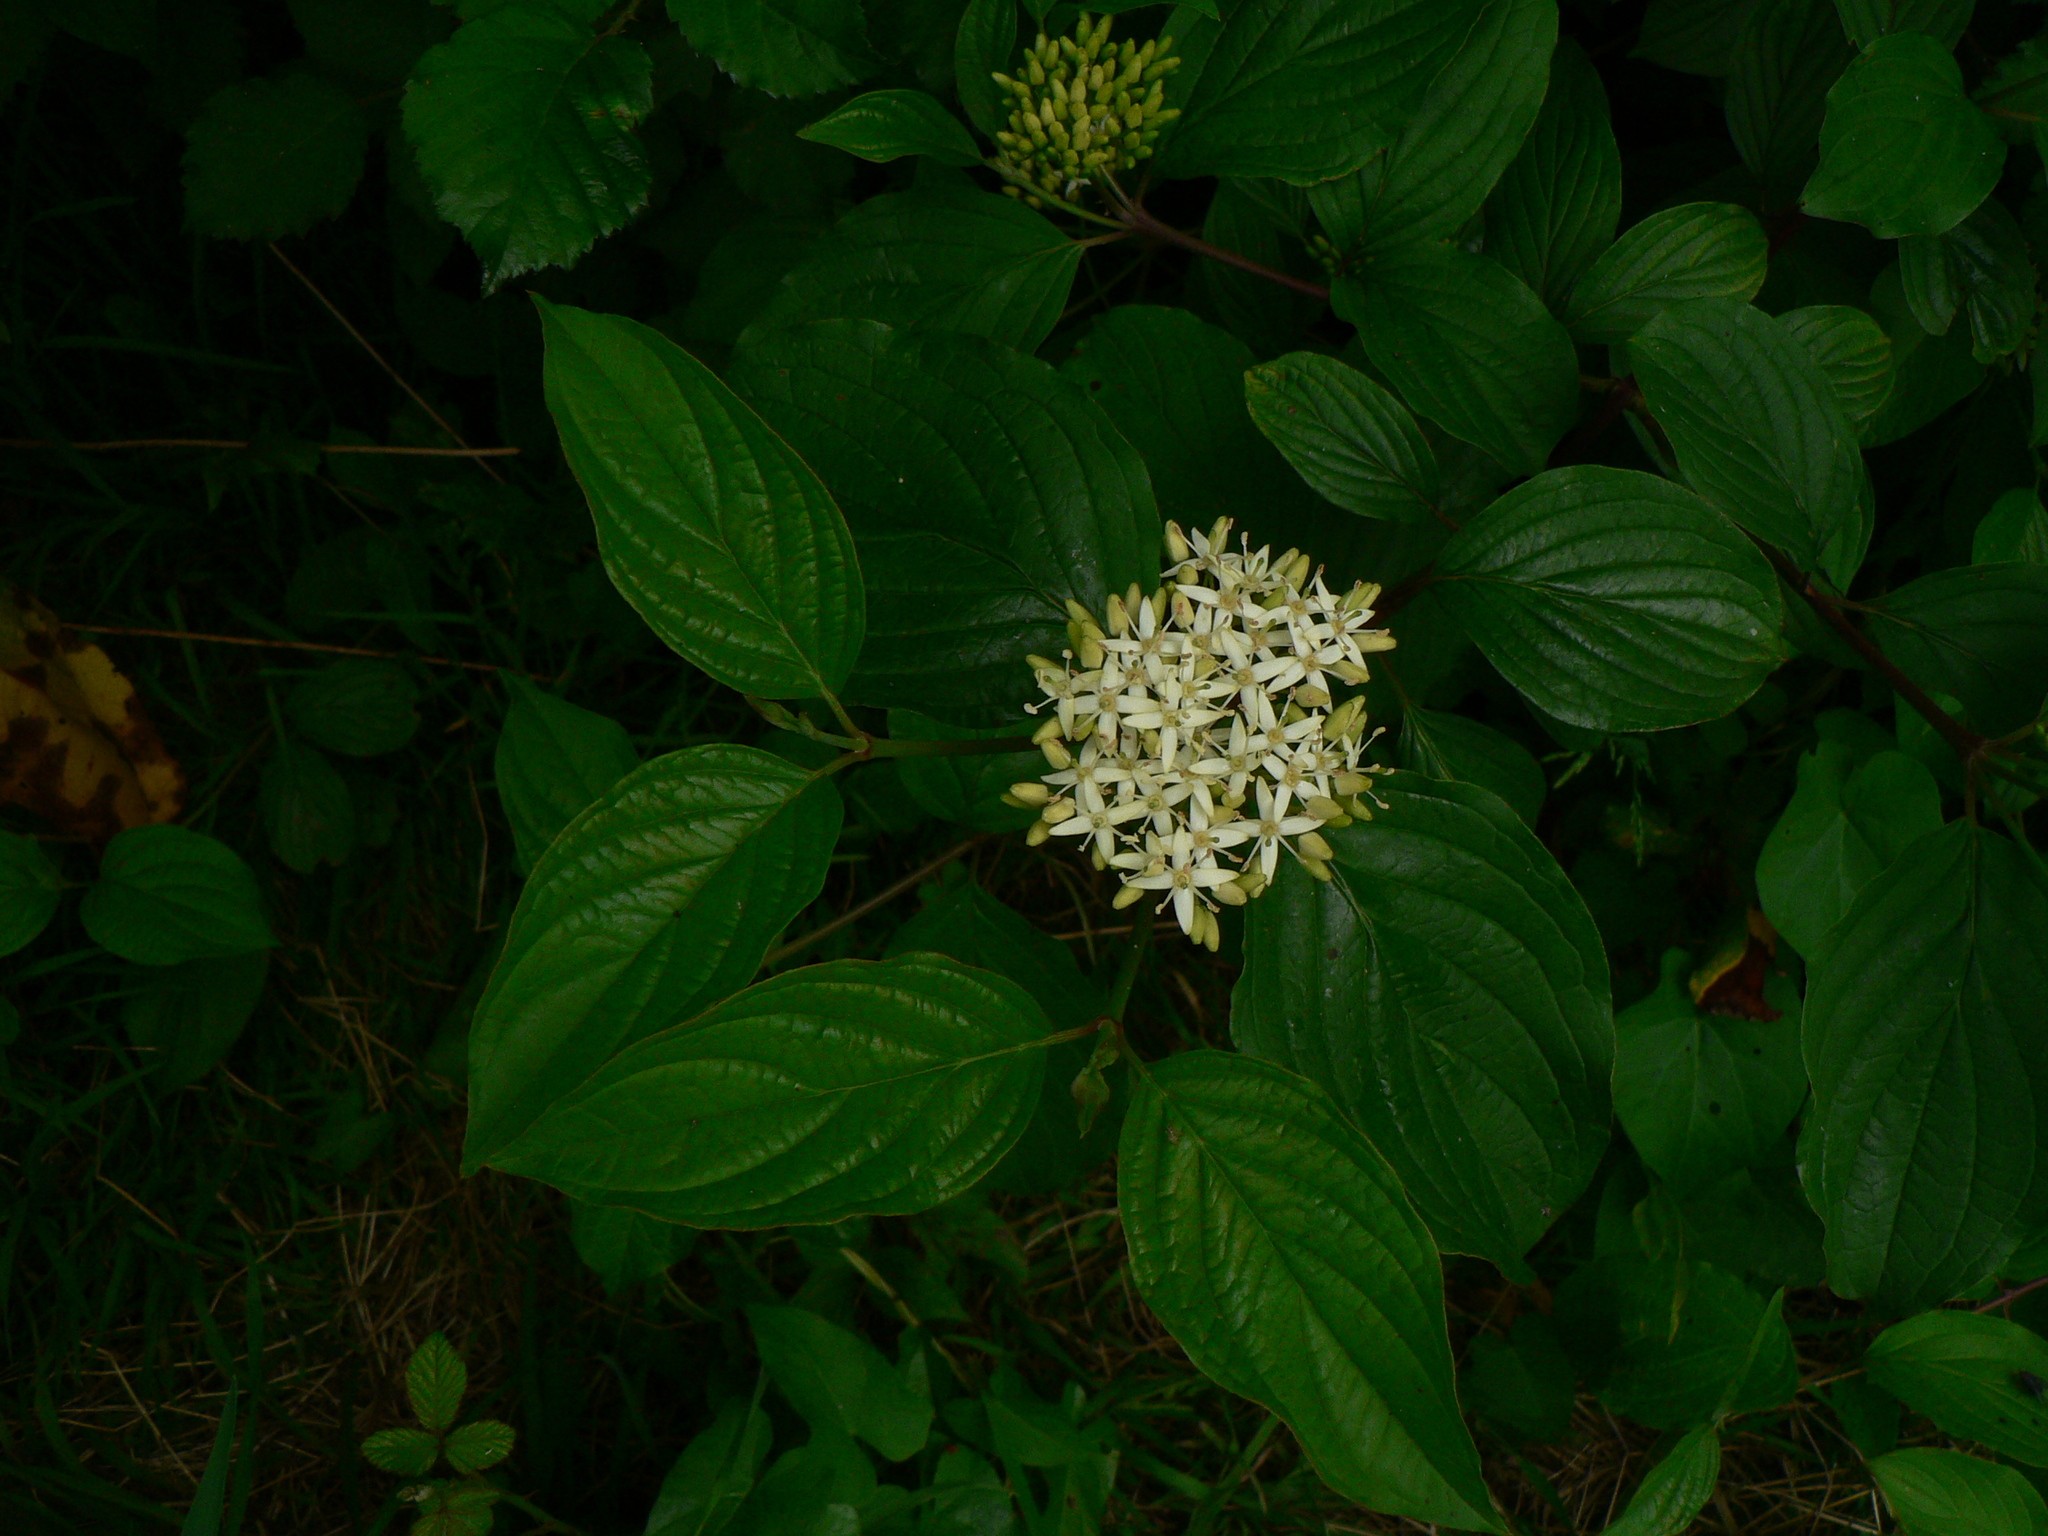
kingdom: Plantae
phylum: Tracheophyta
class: Magnoliopsida
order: Cornales
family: Cornaceae
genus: Cornus
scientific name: Cornus sanguinea
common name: Dogwood
